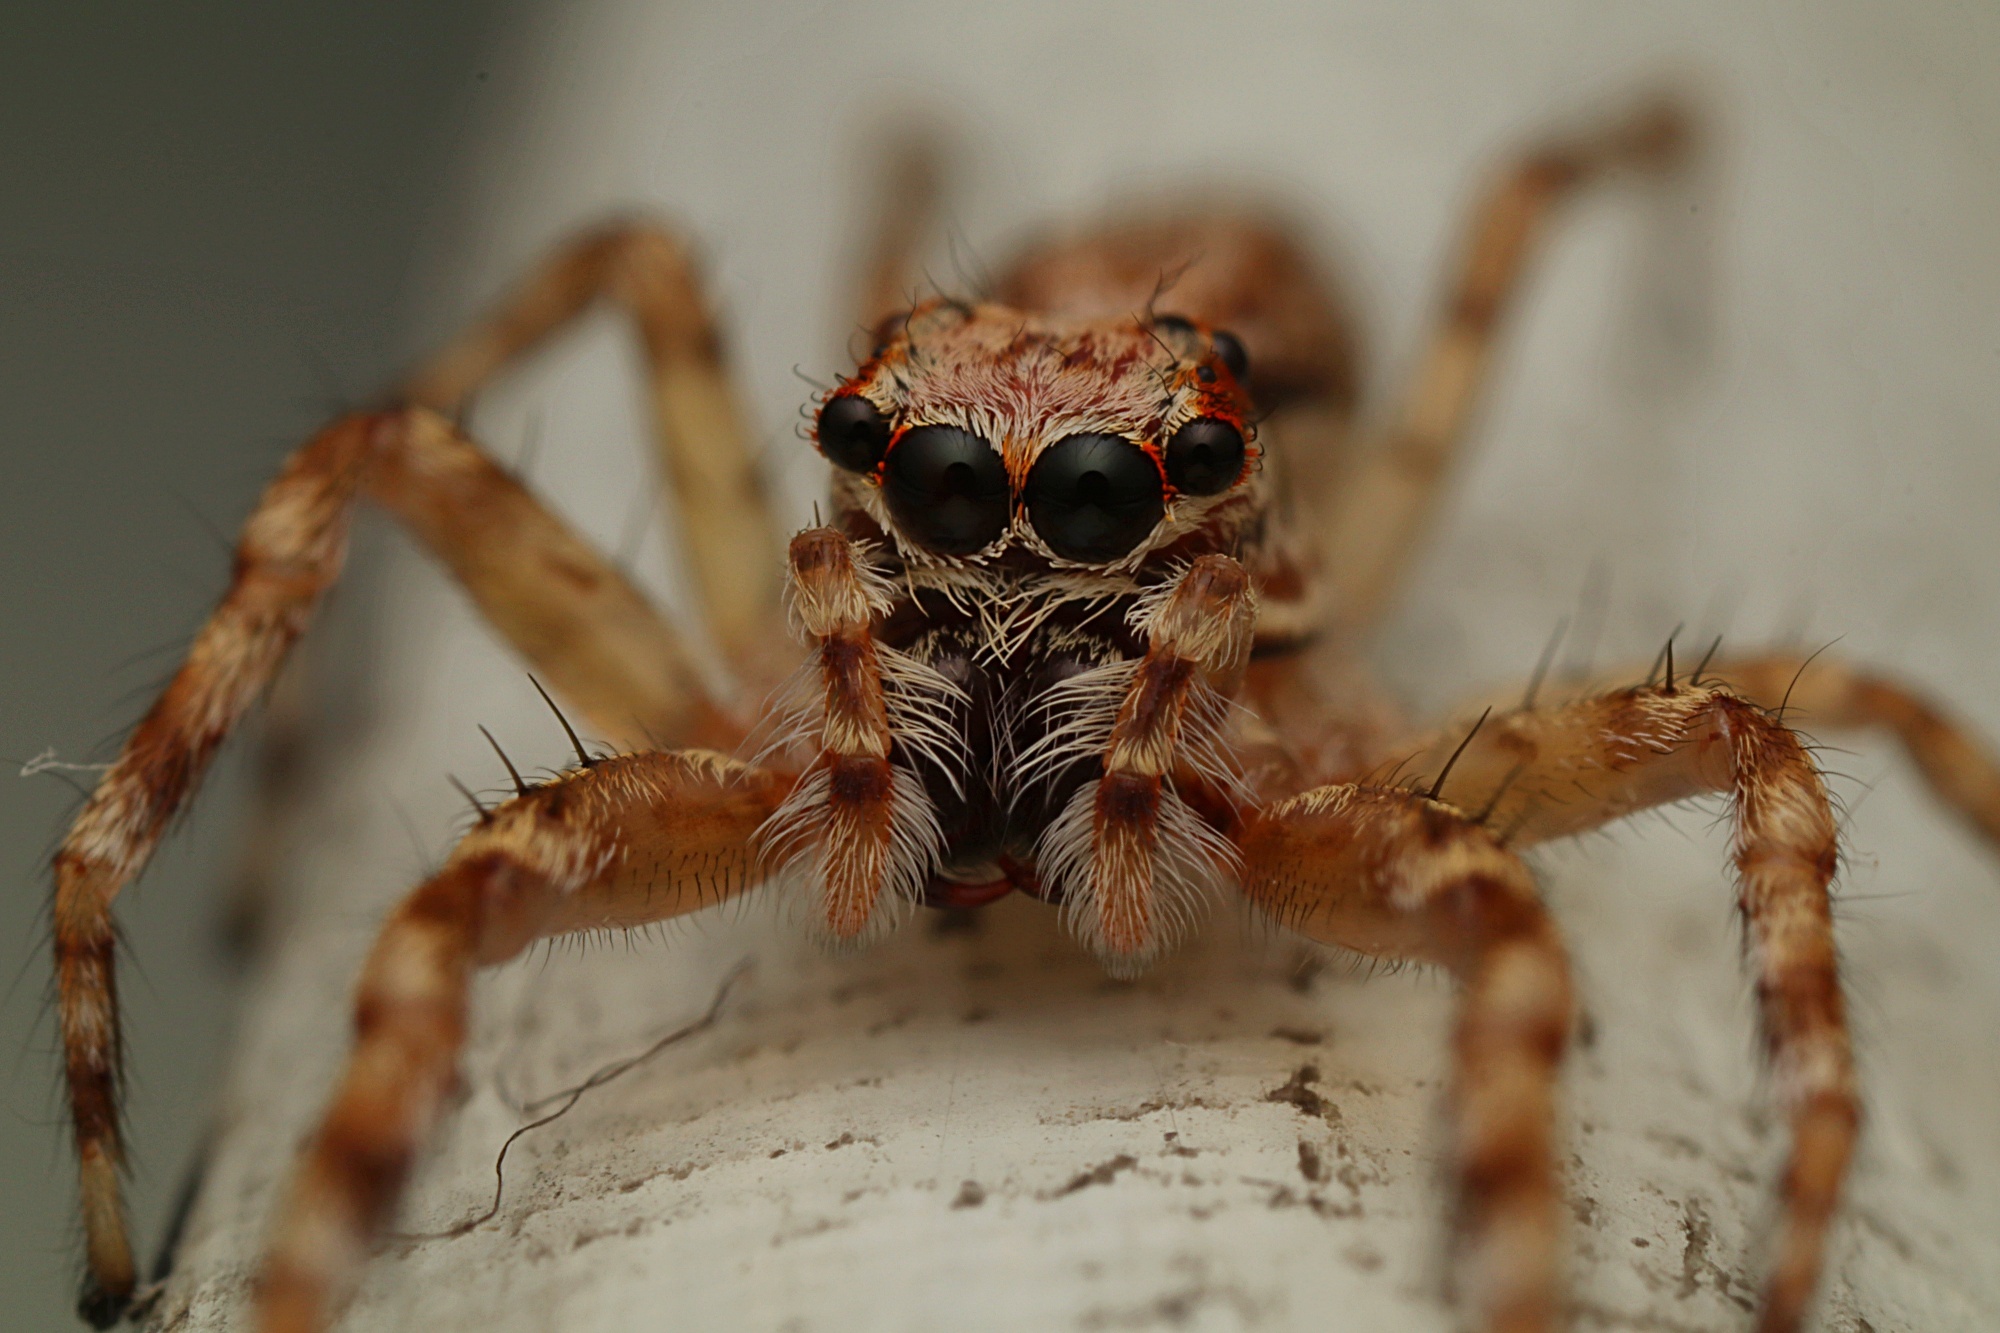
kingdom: Animalia
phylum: Arthropoda
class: Arachnida
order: Araneae
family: Salticidae
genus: Helpis
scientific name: Helpis minitabunda
